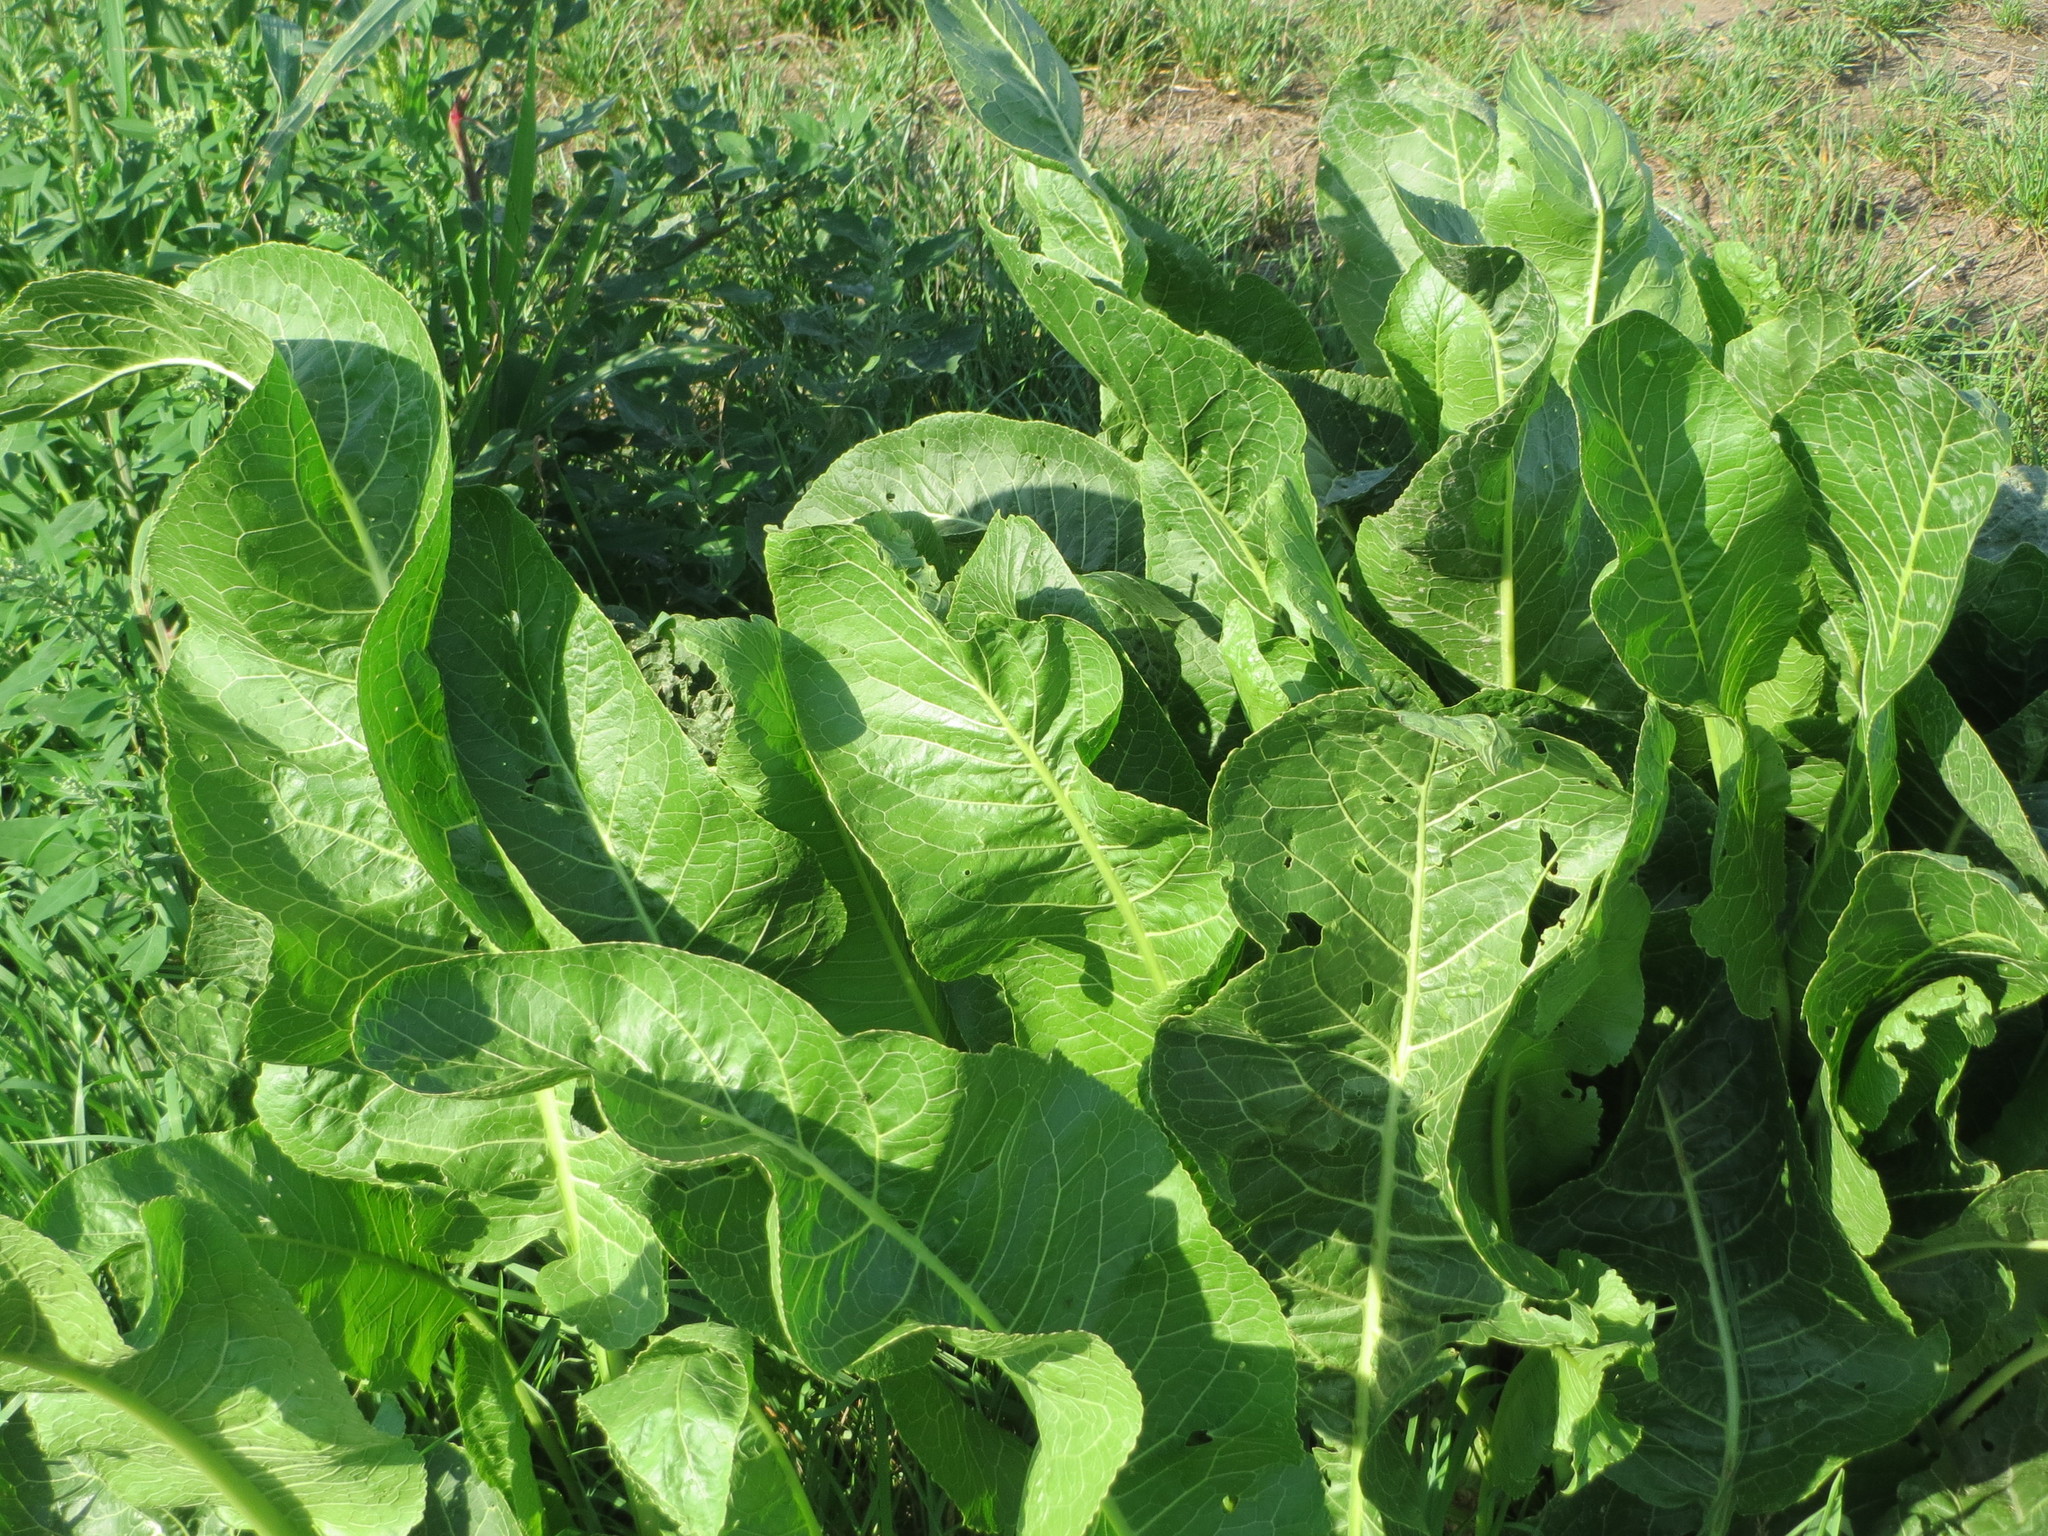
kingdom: Plantae
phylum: Tracheophyta
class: Magnoliopsida
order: Brassicales
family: Brassicaceae
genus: Armoracia
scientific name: Armoracia rusticana
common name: Horseradish
